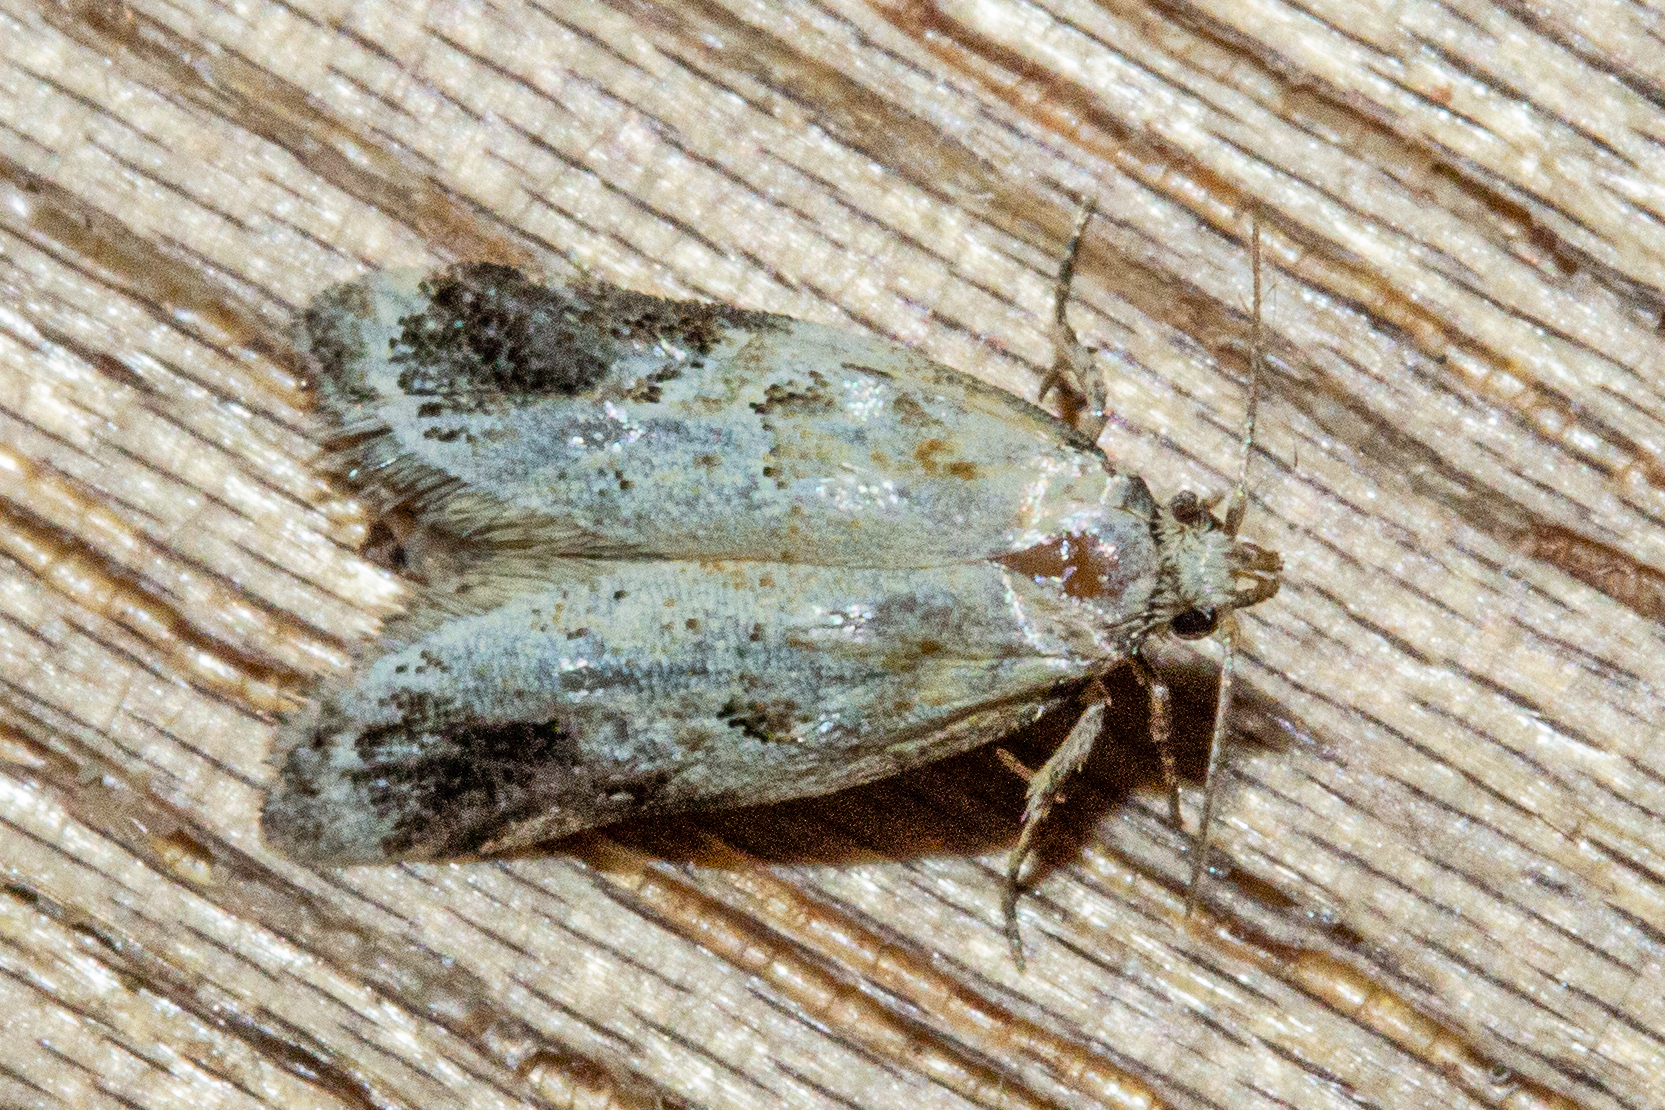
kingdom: Animalia
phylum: Arthropoda
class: Insecta
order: Lepidoptera
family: Oecophoridae
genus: Trachypepla
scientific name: Trachypepla aspidephora
